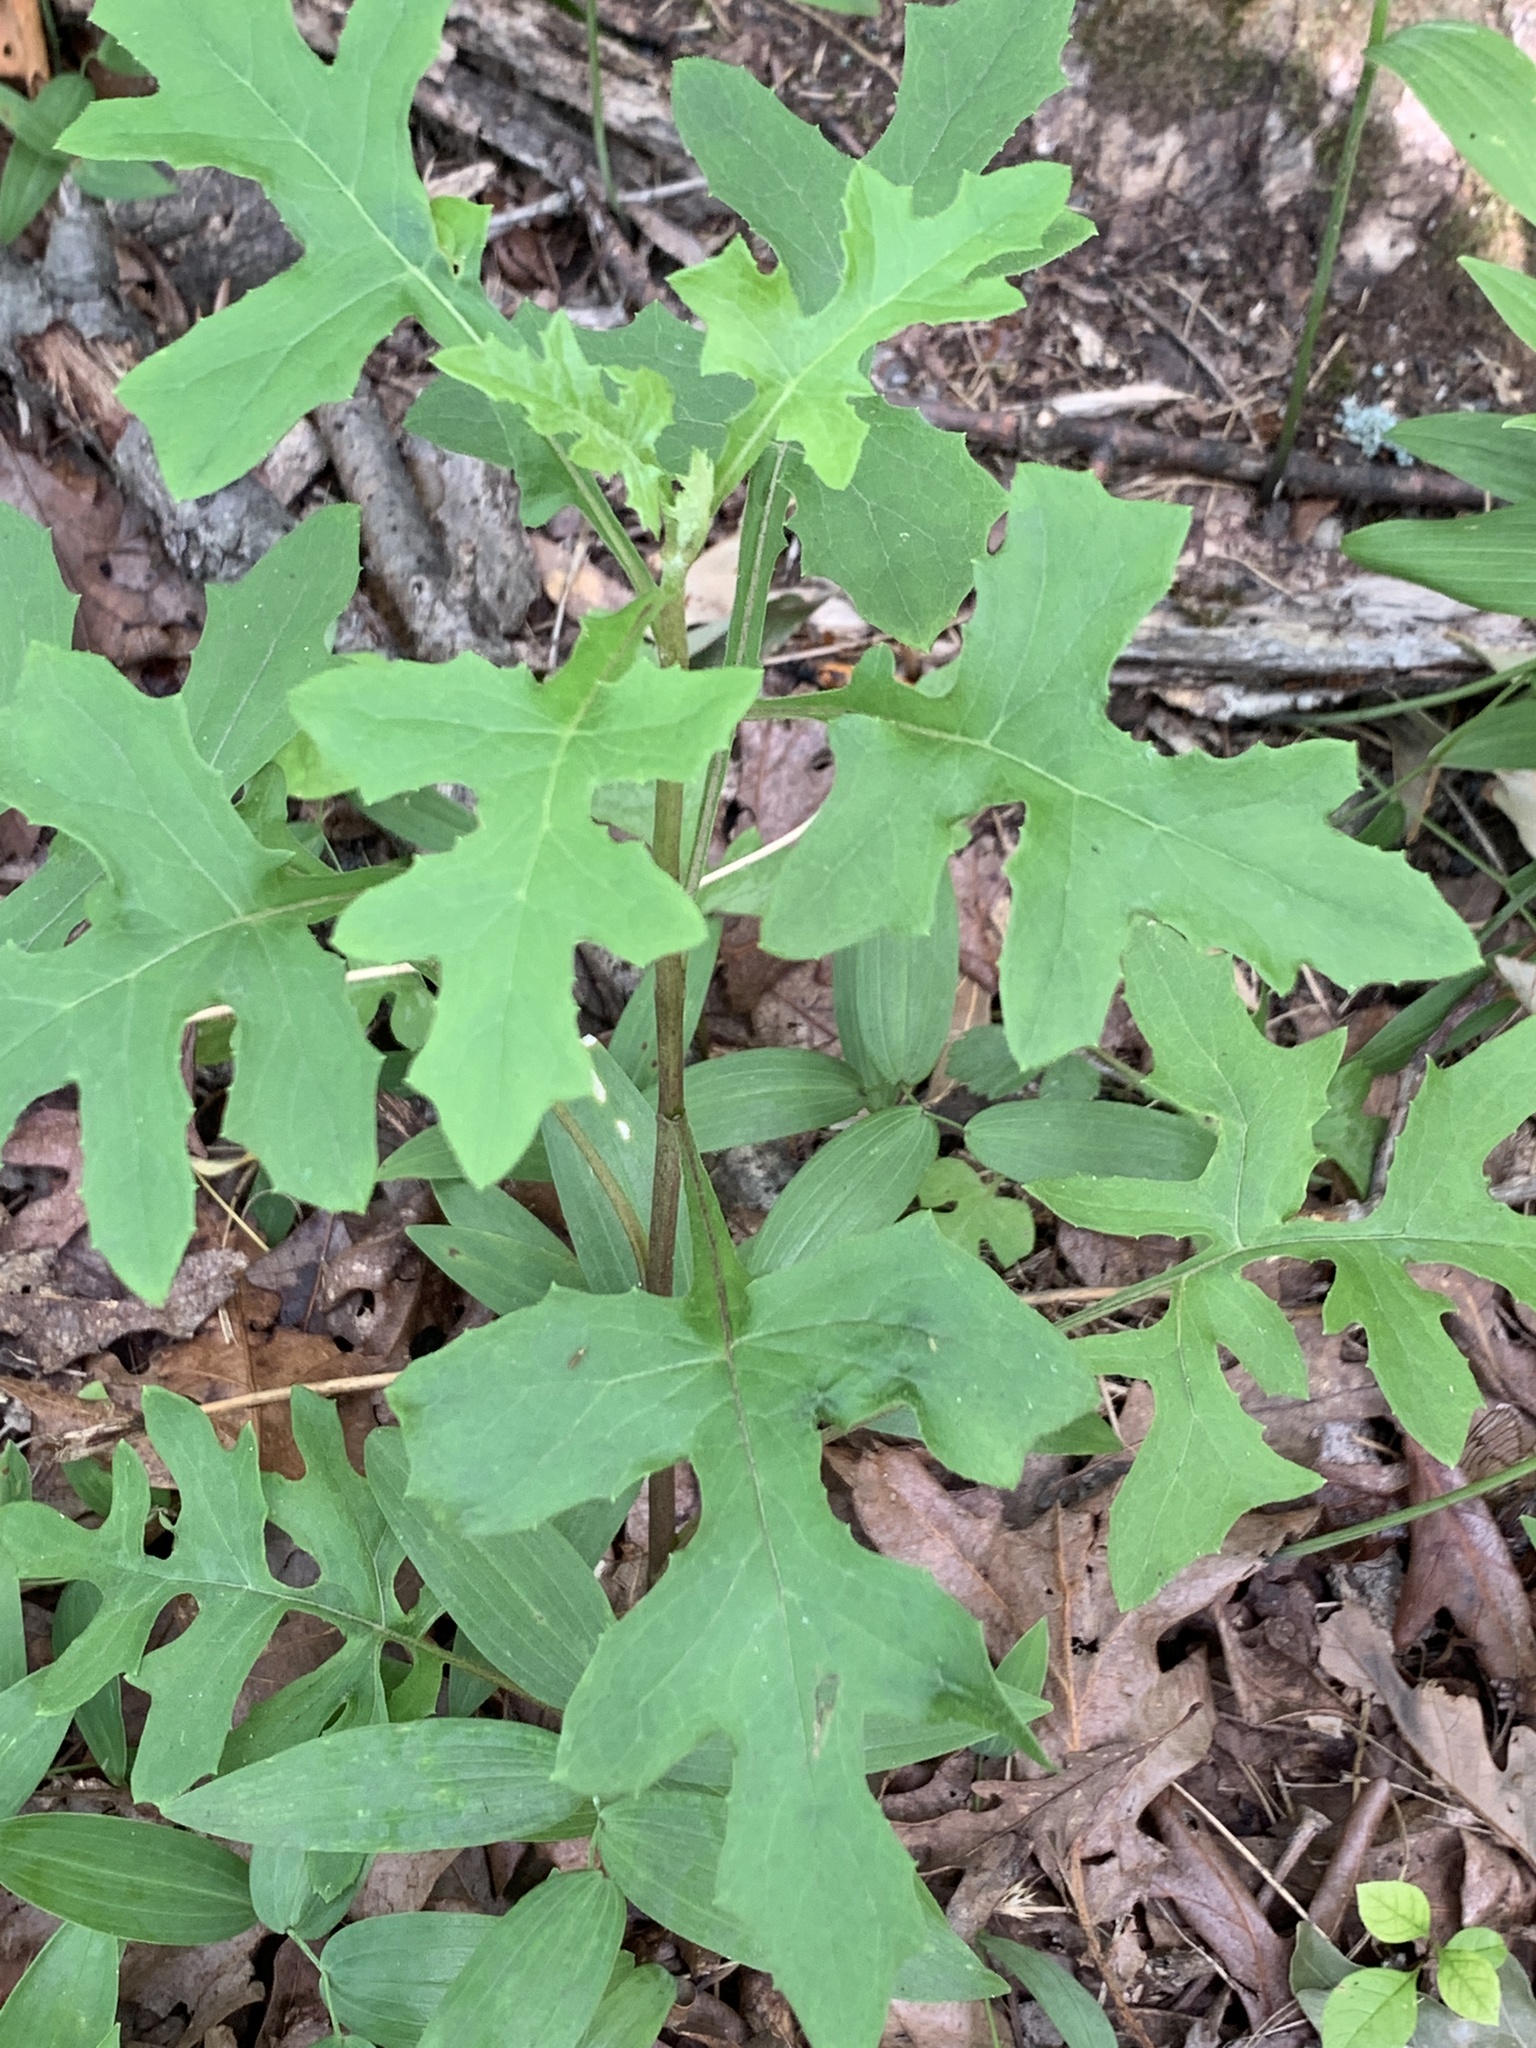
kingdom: Plantae
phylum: Tracheophyta
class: Magnoliopsida
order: Asterales
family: Asteraceae
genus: Nabalus
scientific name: Nabalus serpentarius
